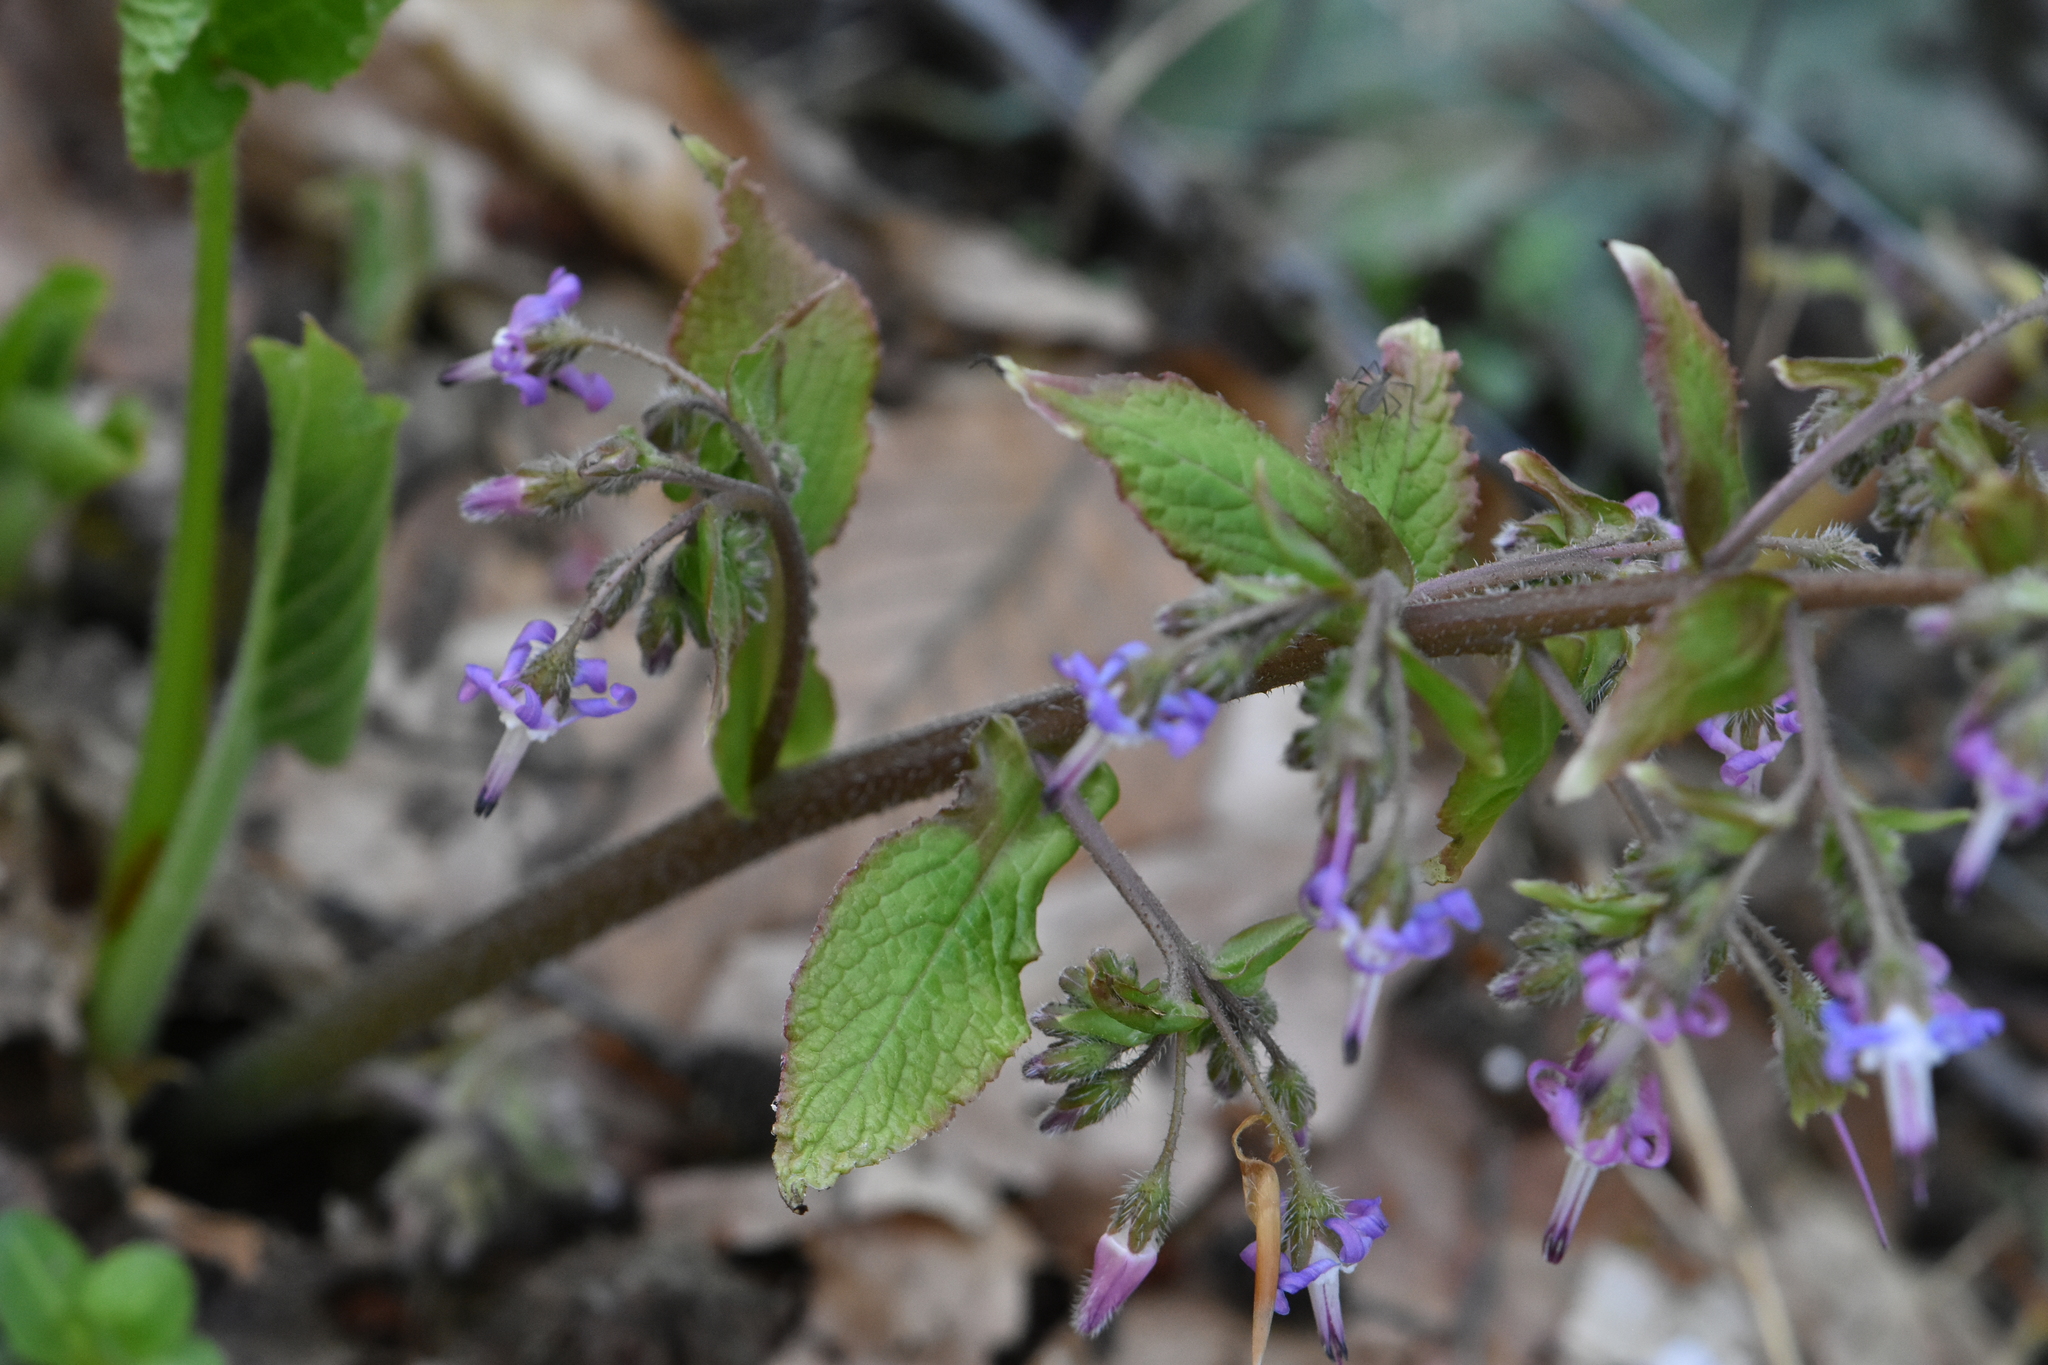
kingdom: Plantae
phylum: Tracheophyta
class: Magnoliopsida
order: Boraginales
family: Boraginaceae
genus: Trachystemon
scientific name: Trachystemon orientale
